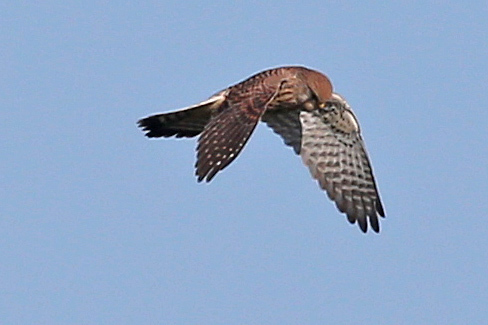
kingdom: Animalia
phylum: Chordata
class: Aves
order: Falconiformes
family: Falconidae
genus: Falco
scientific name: Falco tinnunculus
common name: Common kestrel
